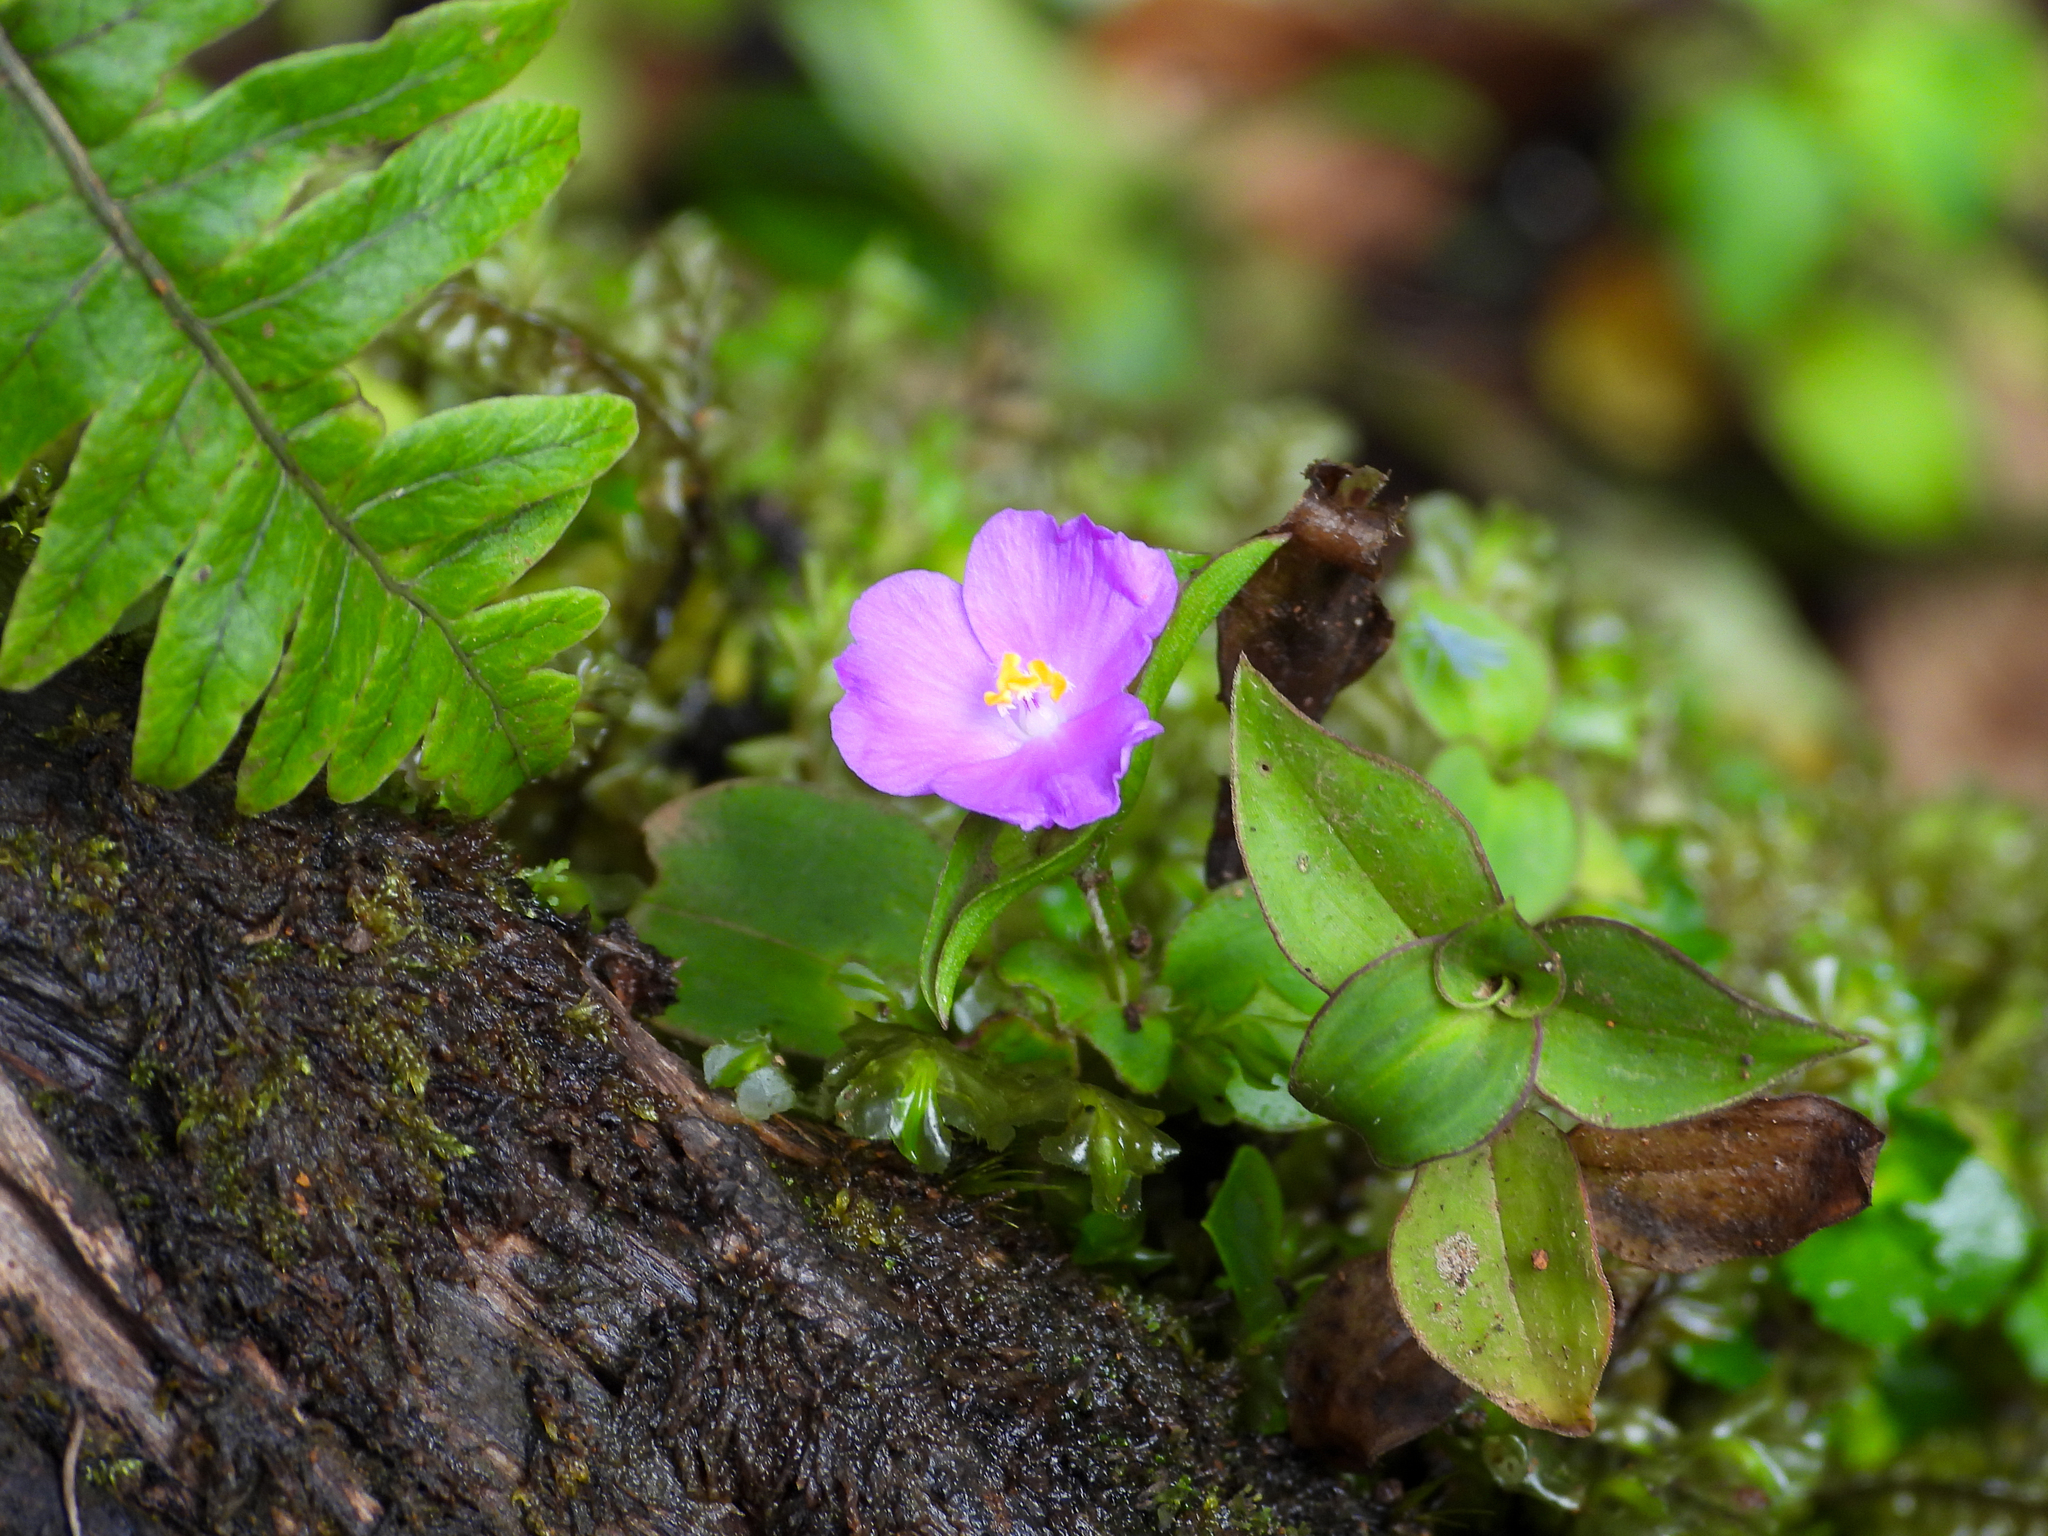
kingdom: Plantae
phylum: Tracheophyta
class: Liliopsida
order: Commelinales
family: Commelinaceae
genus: Tradescantia
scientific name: Tradescantia poelliae
